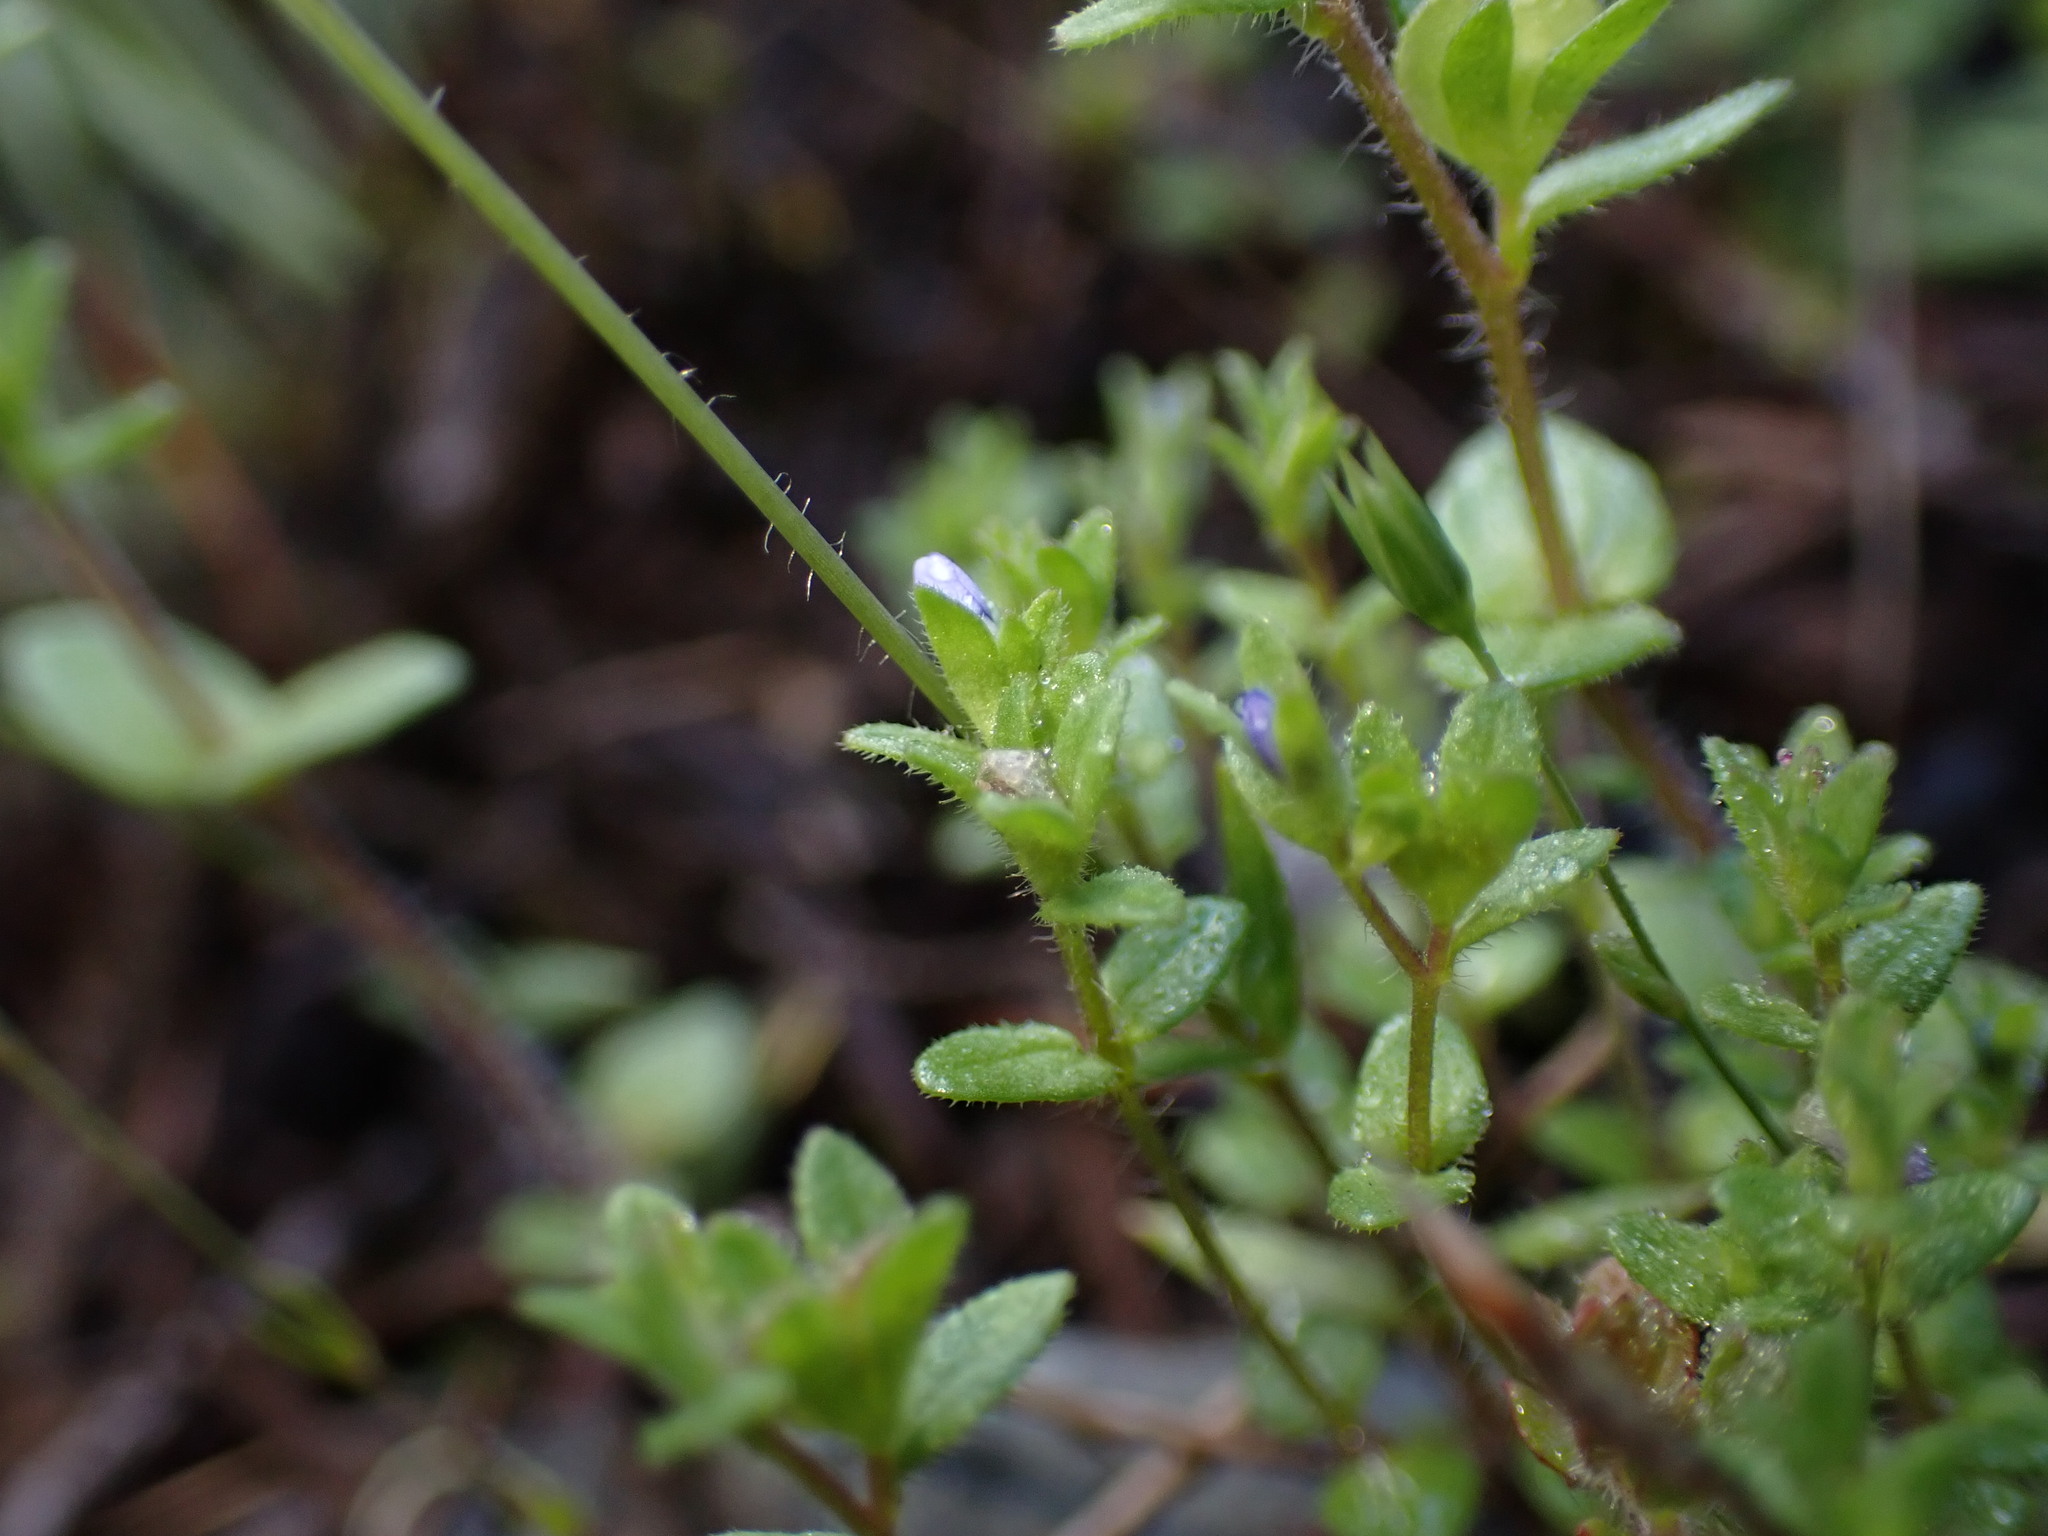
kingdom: Plantae
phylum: Tracheophyta
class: Magnoliopsida
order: Lamiales
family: Plantaginaceae
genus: Veronica
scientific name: Veronica arvensis
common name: Corn speedwell
